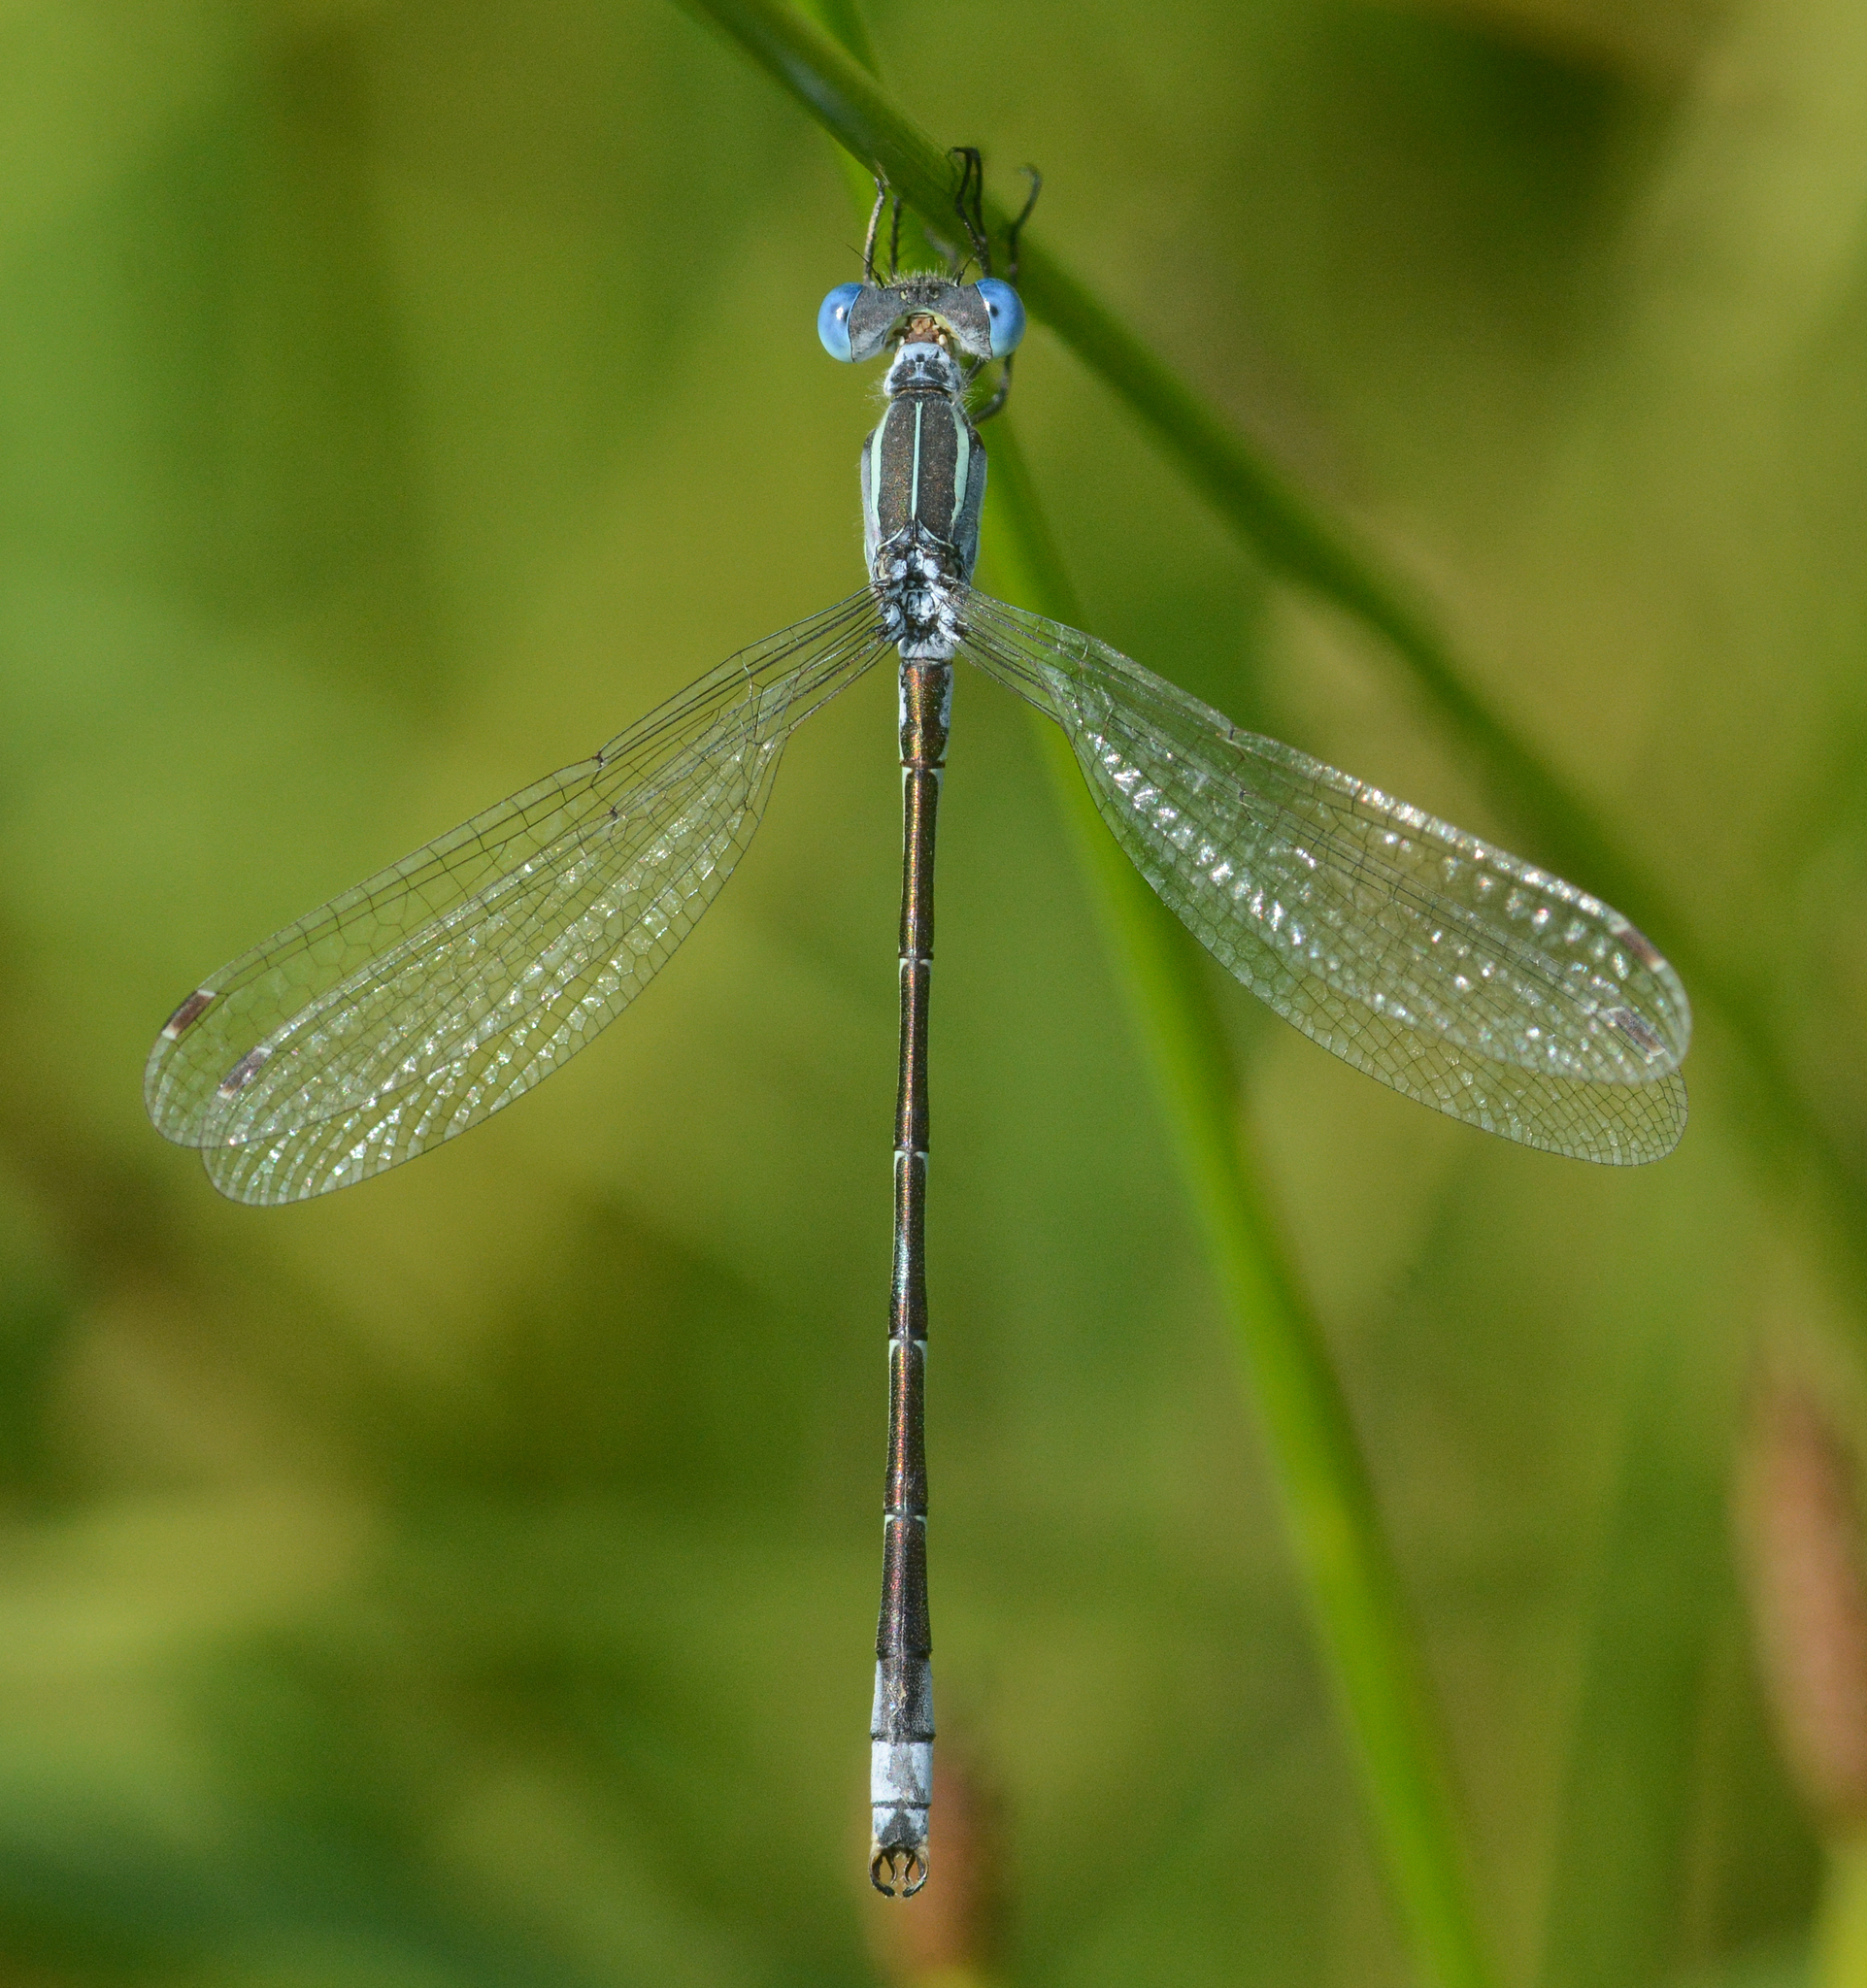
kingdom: Animalia
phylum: Arthropoda
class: Insecta
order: Odonata
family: Lestidae
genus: Lestes
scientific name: Lestes unguiculatus
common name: Lyre-tipped spreadwing
